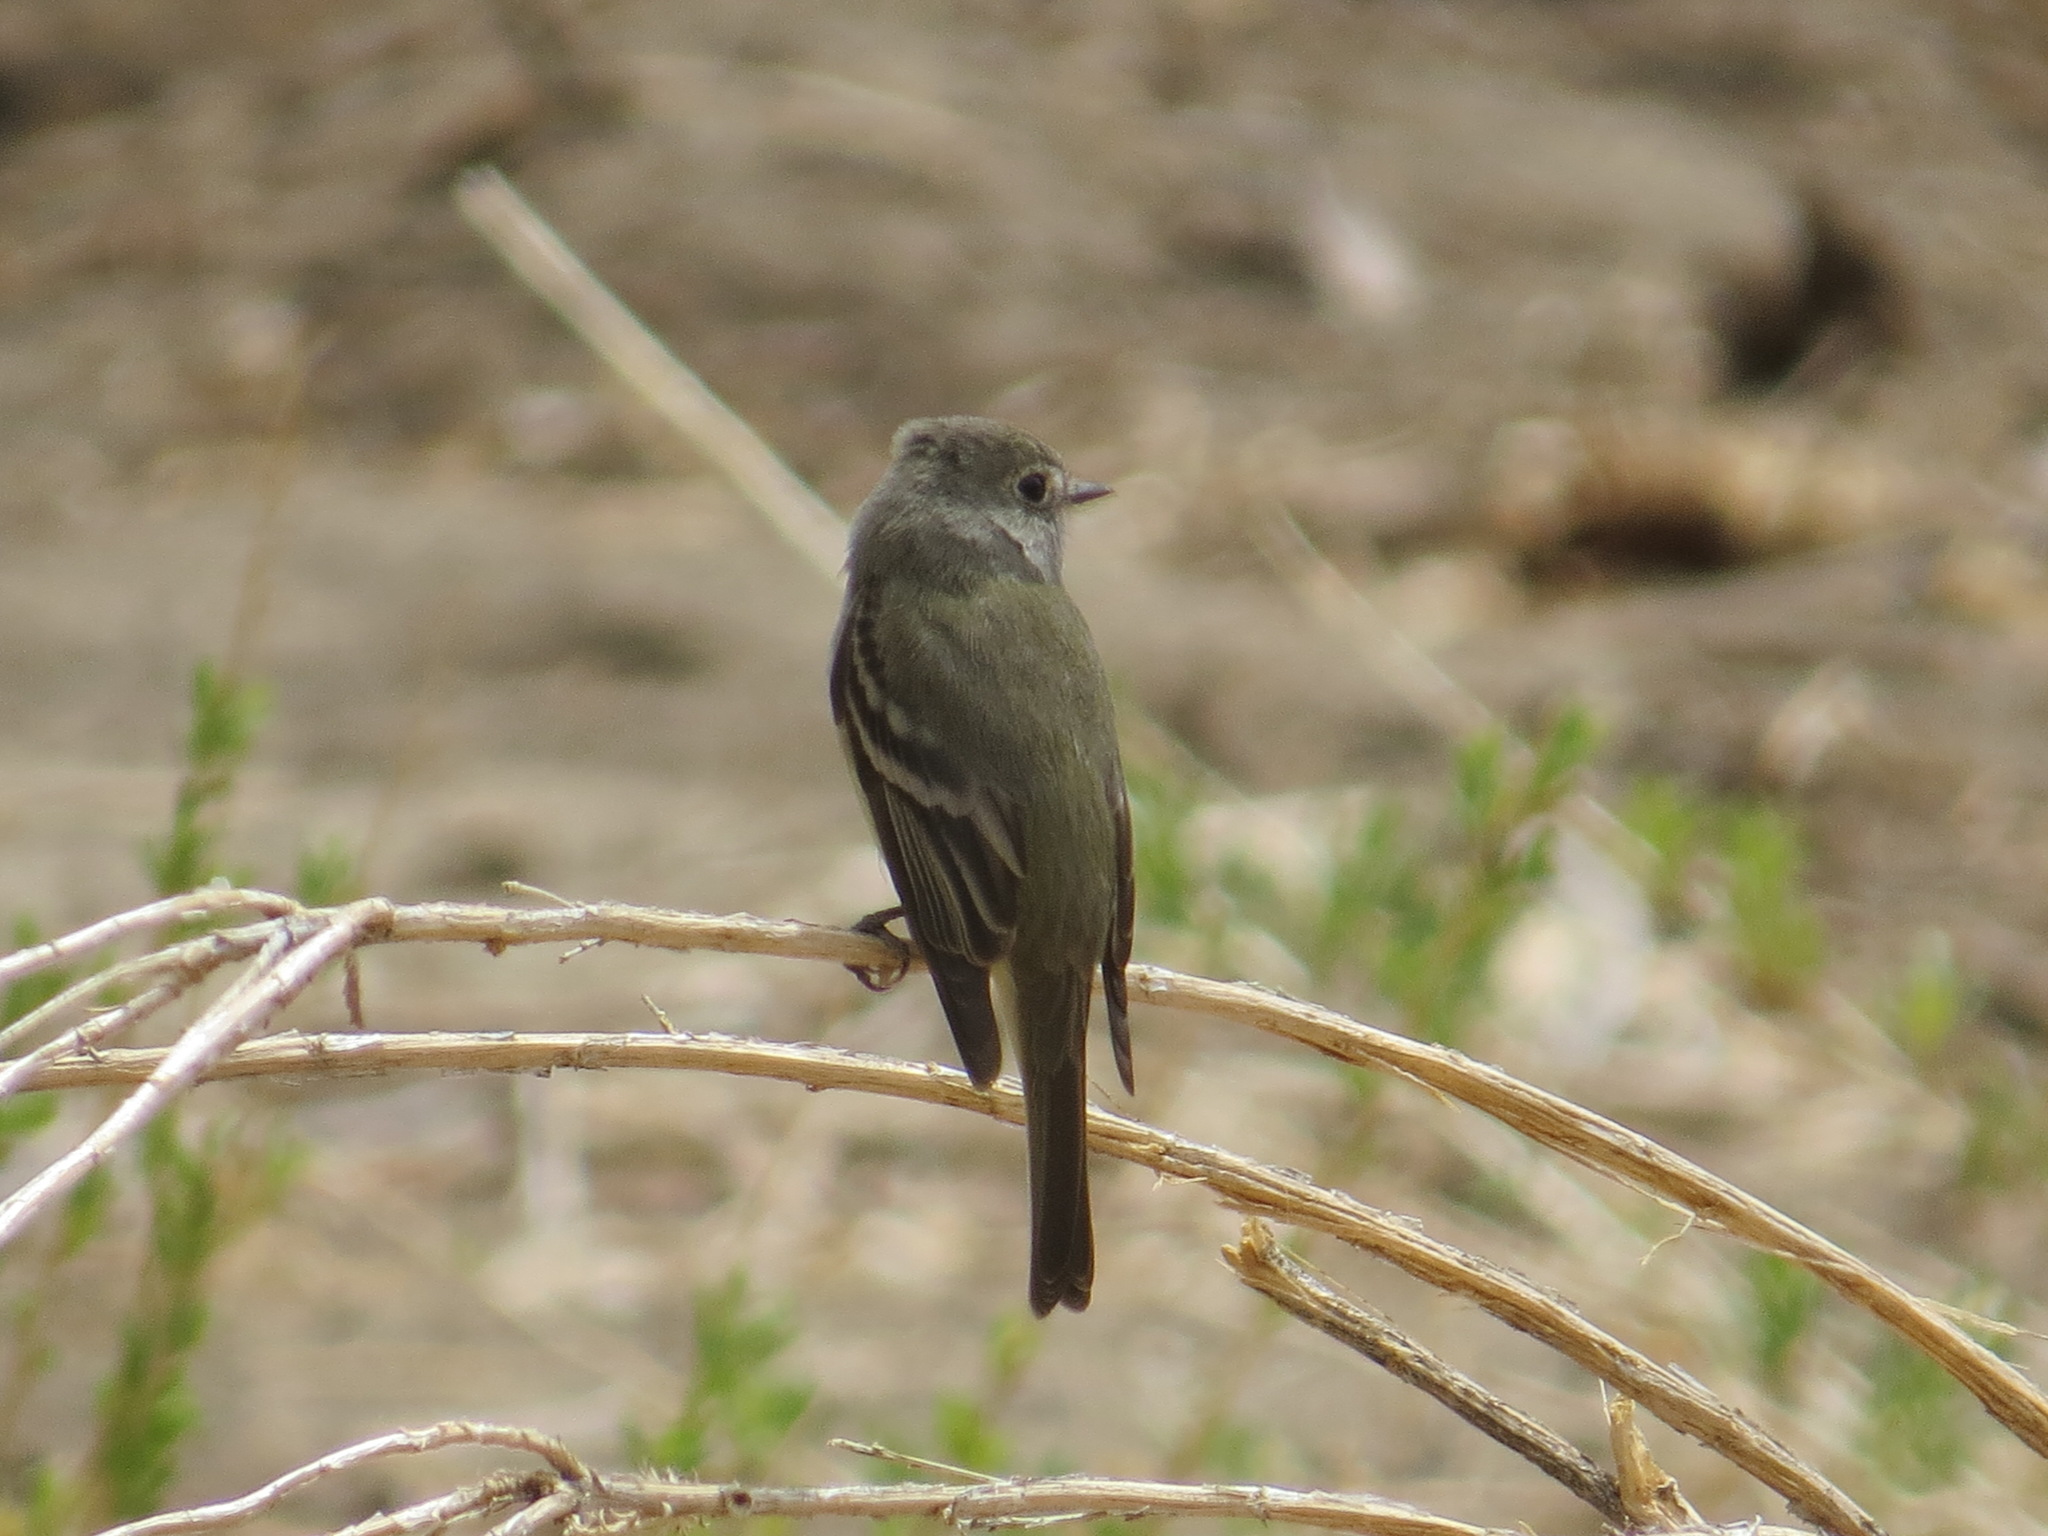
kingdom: Animalia
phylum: Chordata
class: Aves
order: Passeriformes
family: Tyrannidae
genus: Empidonax
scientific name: Empidonax hammondii
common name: Hammond's flycatcher
